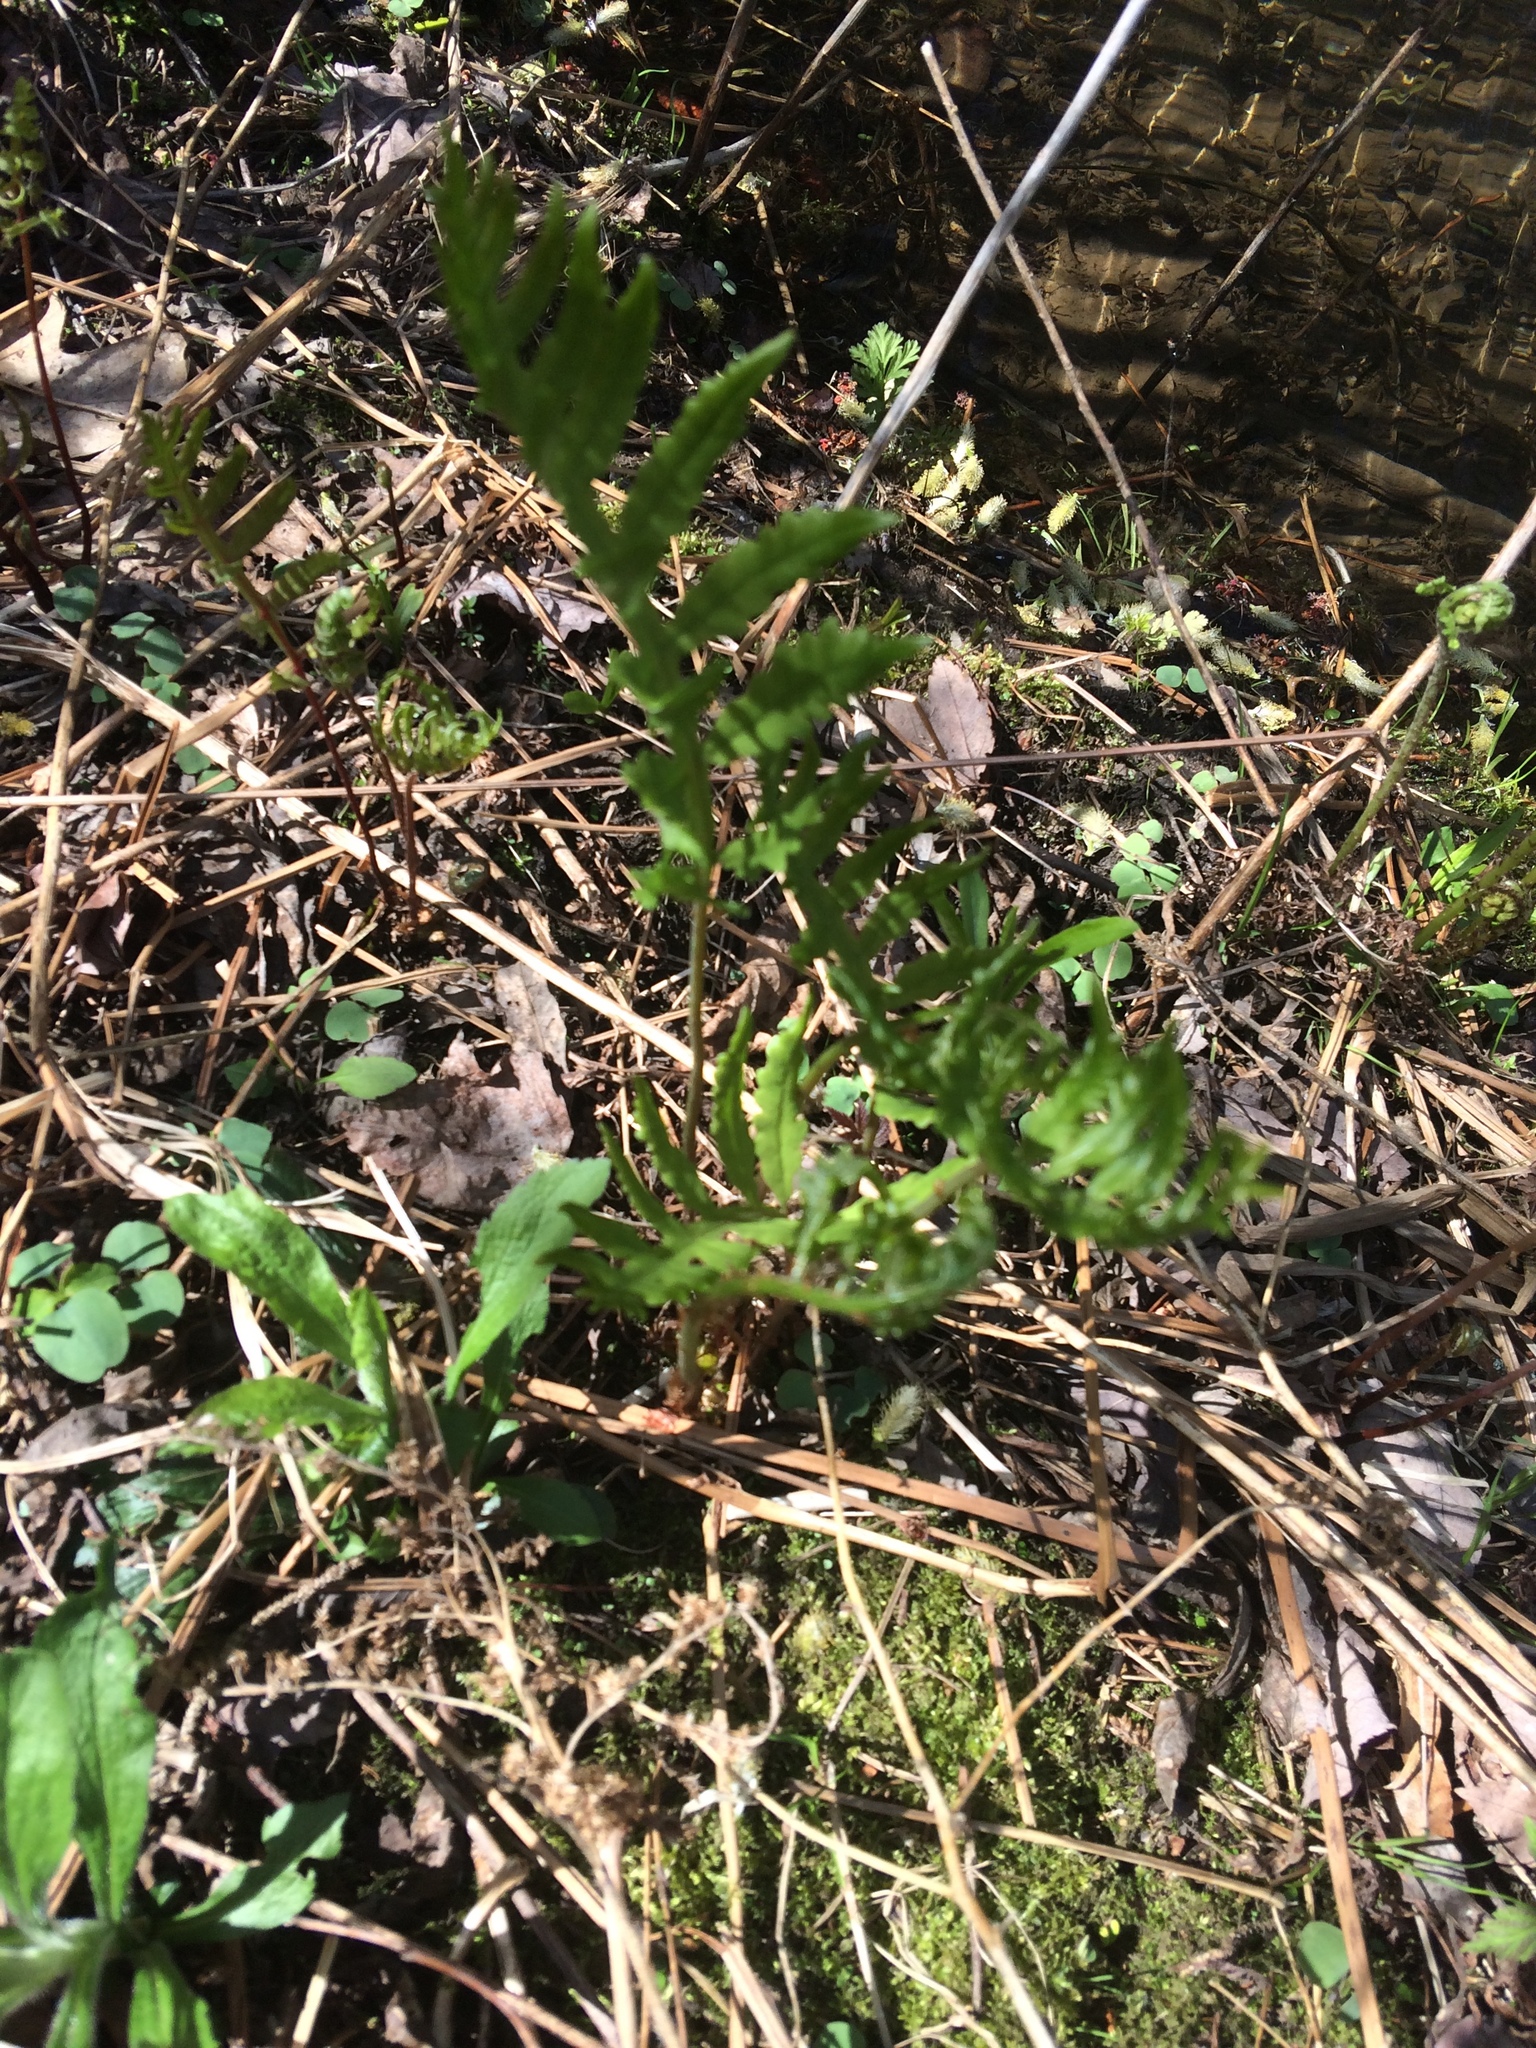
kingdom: Plantae
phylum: Tracheophyta
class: Polypodiopsida
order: Polypodiales
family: Onocleaceae
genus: Onoclea
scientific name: Onoclea sensibilis
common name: Sensitive fern
